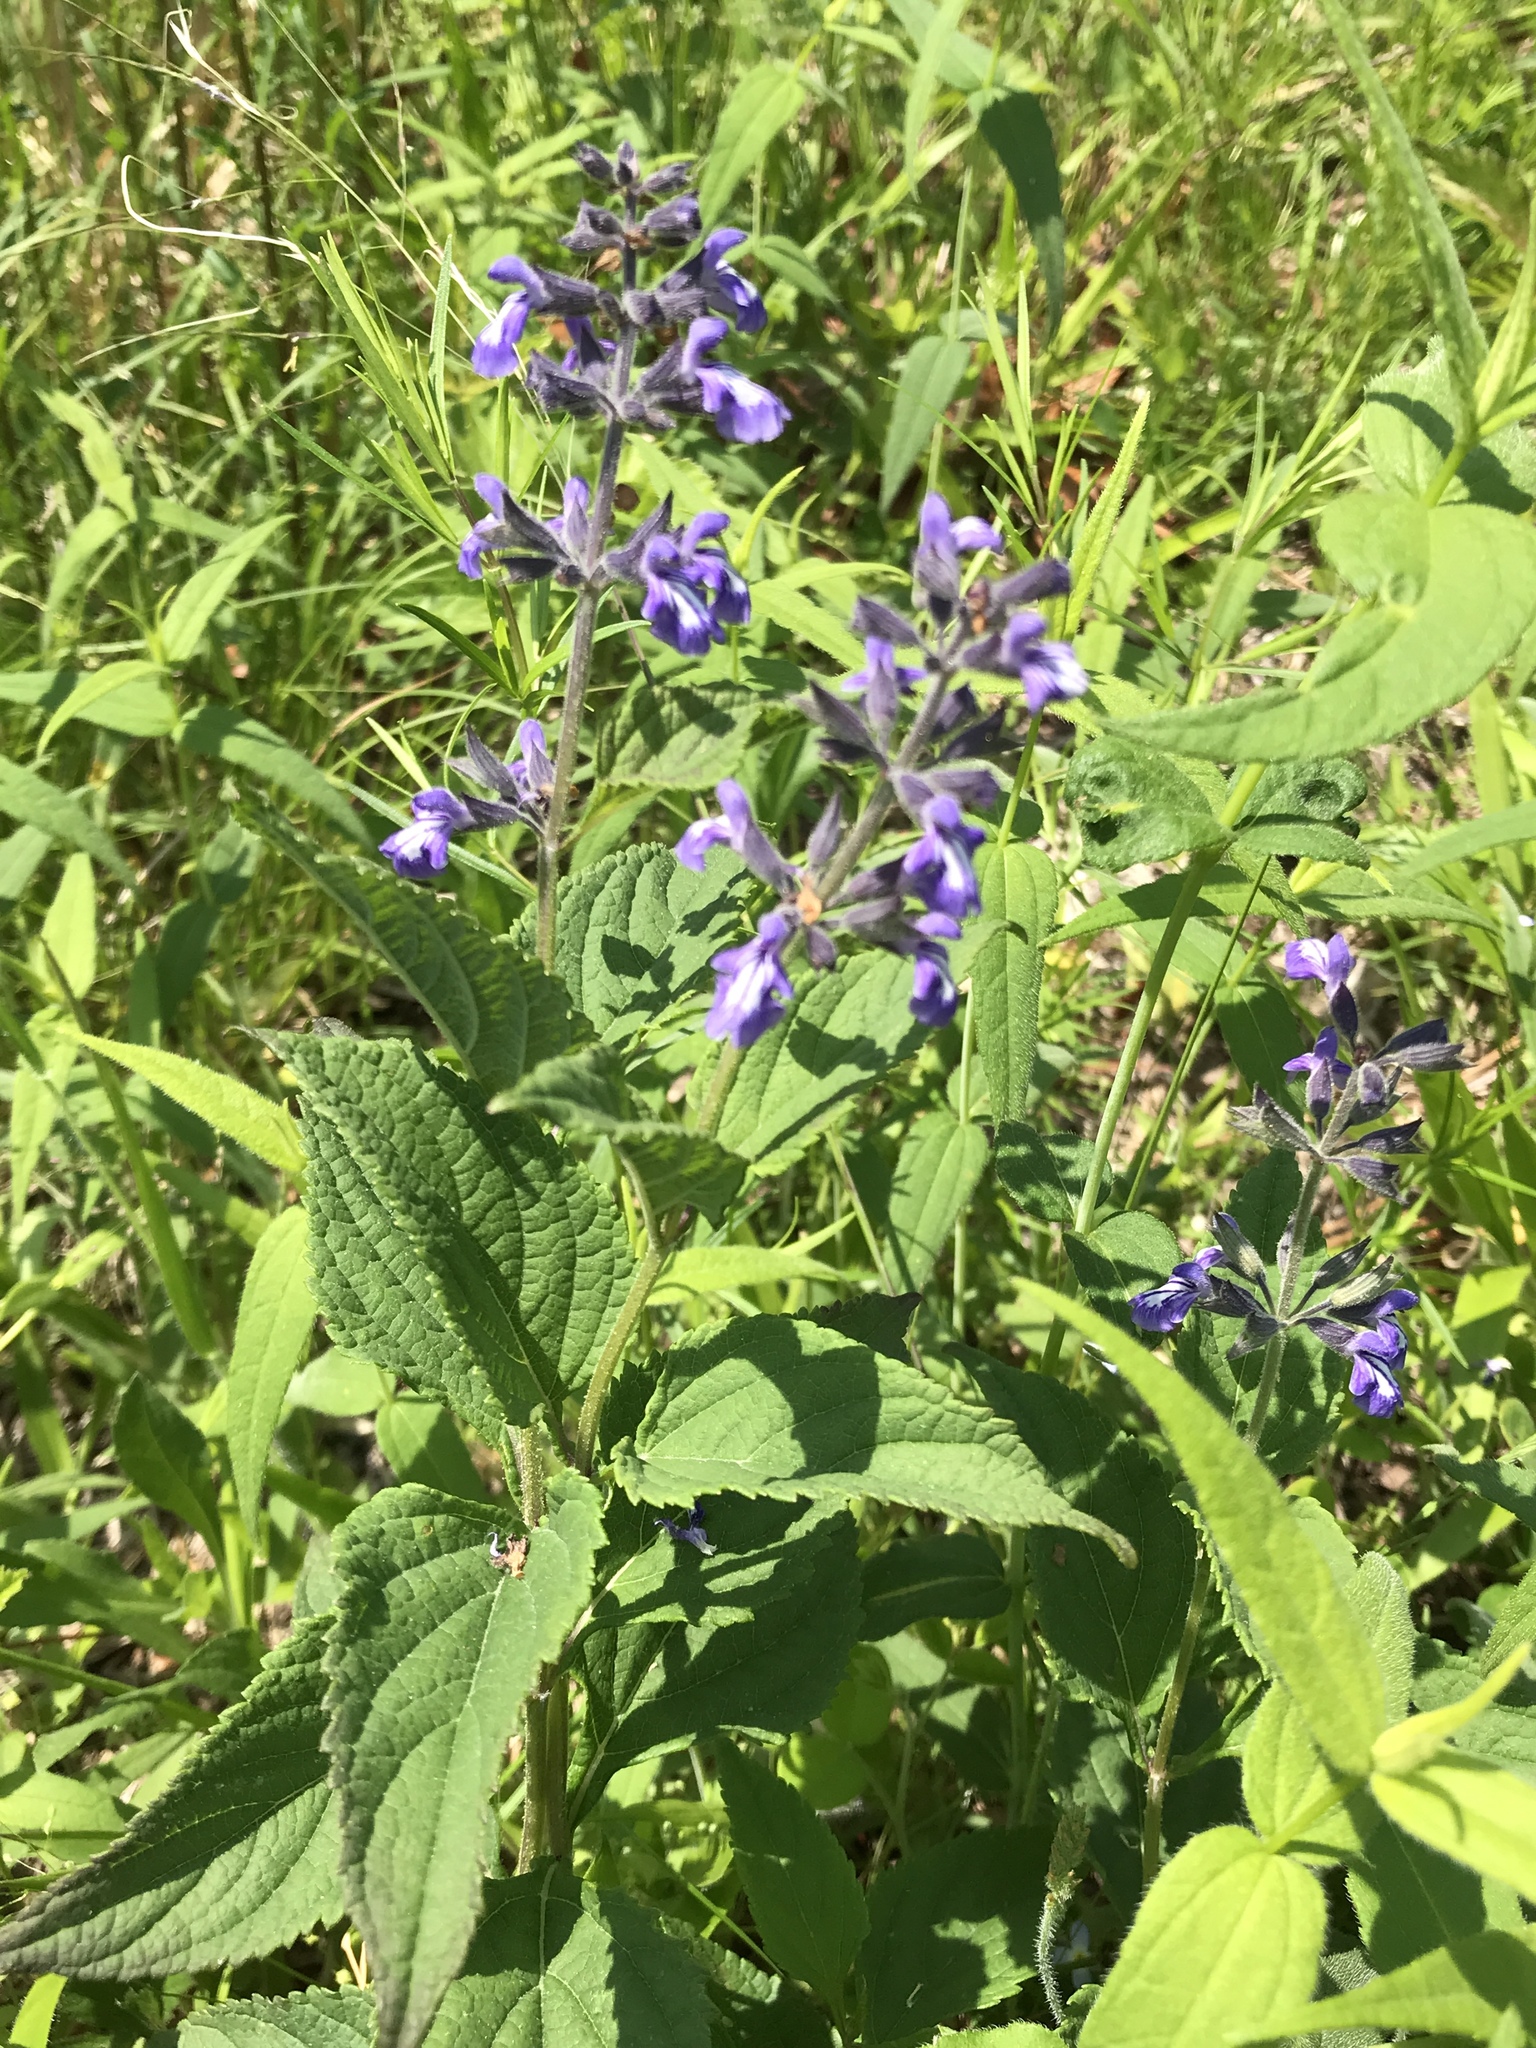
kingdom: Plantae
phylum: Tracheophyta
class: Magnoliopsida
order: Lamiales
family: Lamiaceae
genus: Salvia
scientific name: Salvia urticifolia
